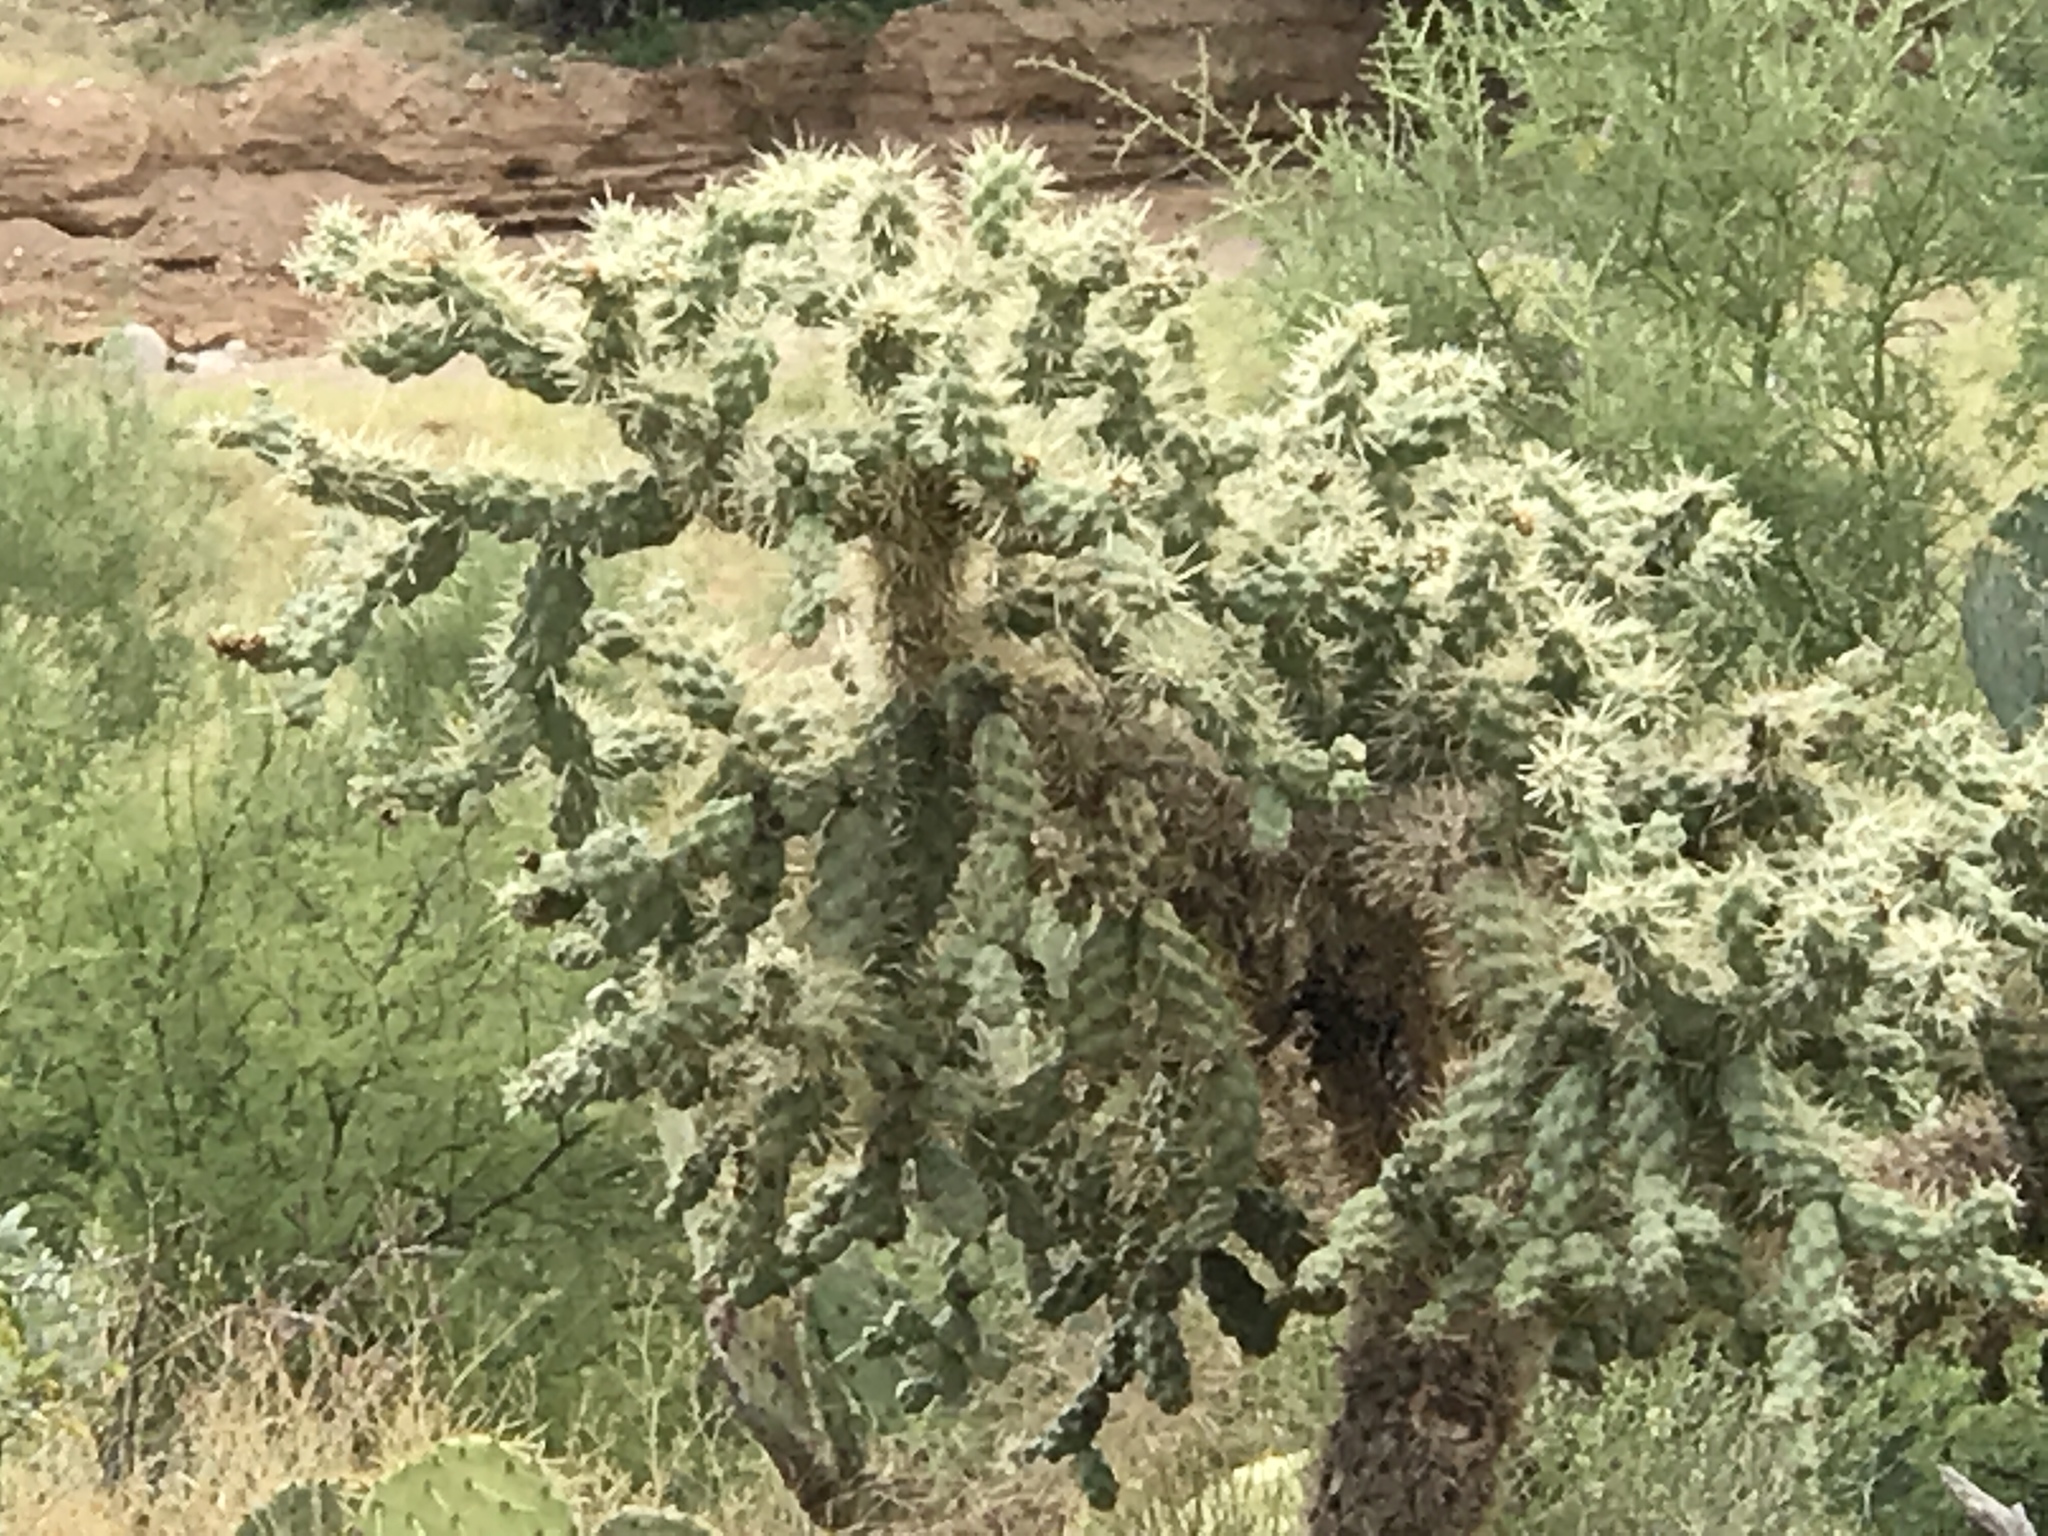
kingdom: Plantae
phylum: Tracheophyta
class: Magnoliopsida
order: Caryophyllales
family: Cactaceae
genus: Cylindropuntia
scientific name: Cylindropuntia fulgida
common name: Jumping cholla
